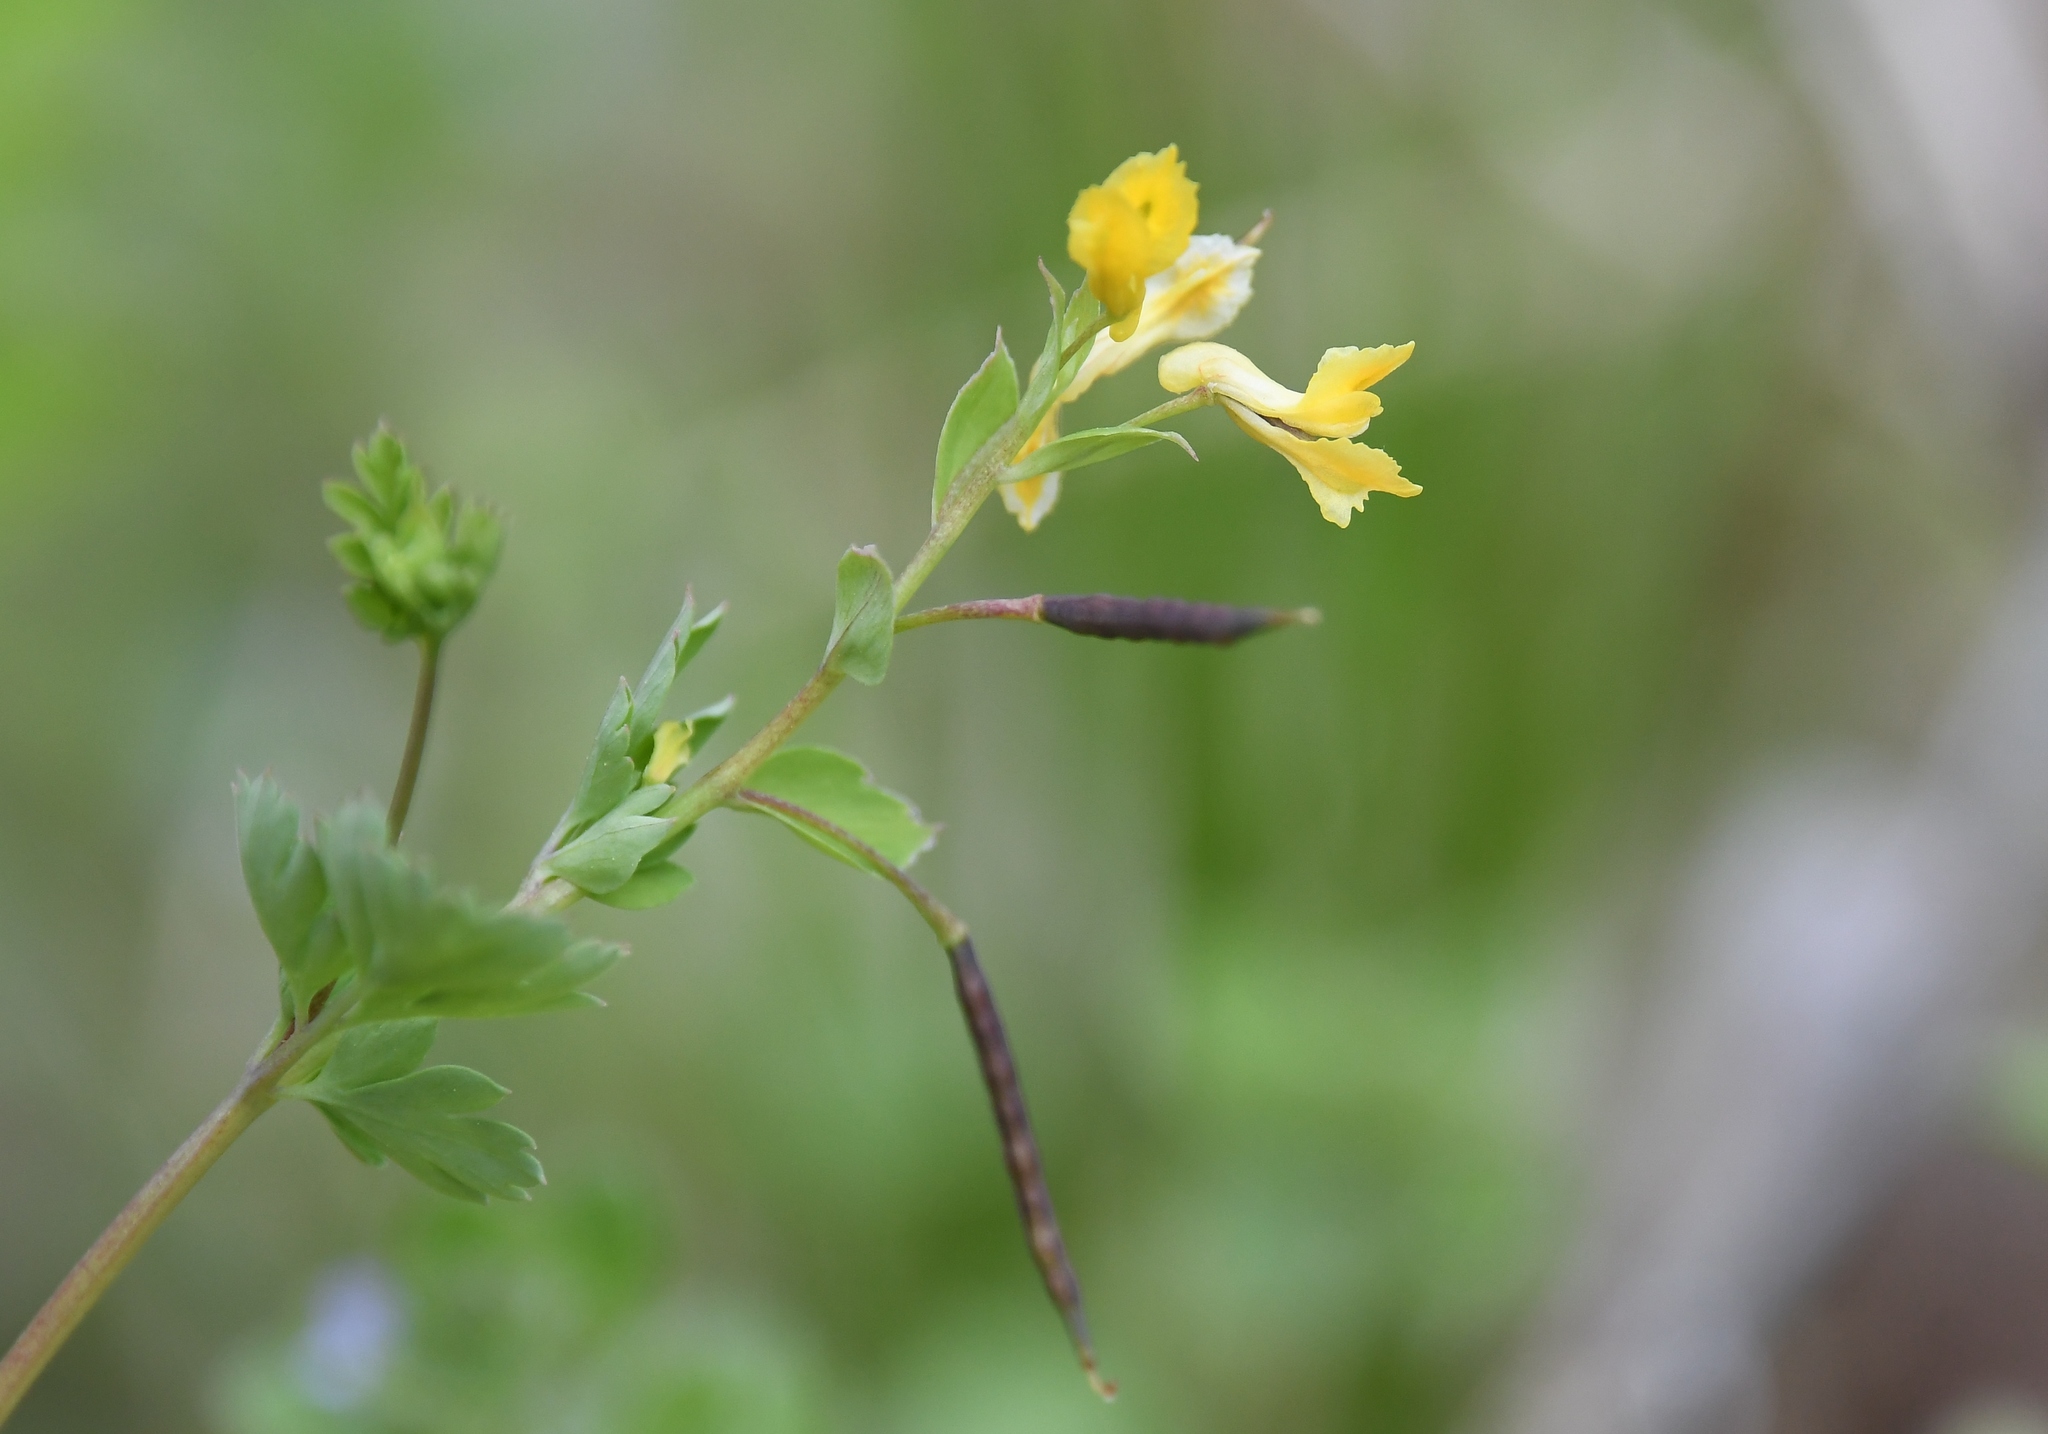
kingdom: Plantae
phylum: Tracheophyta
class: Magnoliopsida
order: Ranunculales
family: Papaveraceae
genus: Corydalis
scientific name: Corydalis flavula
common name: Yellow corydalis
